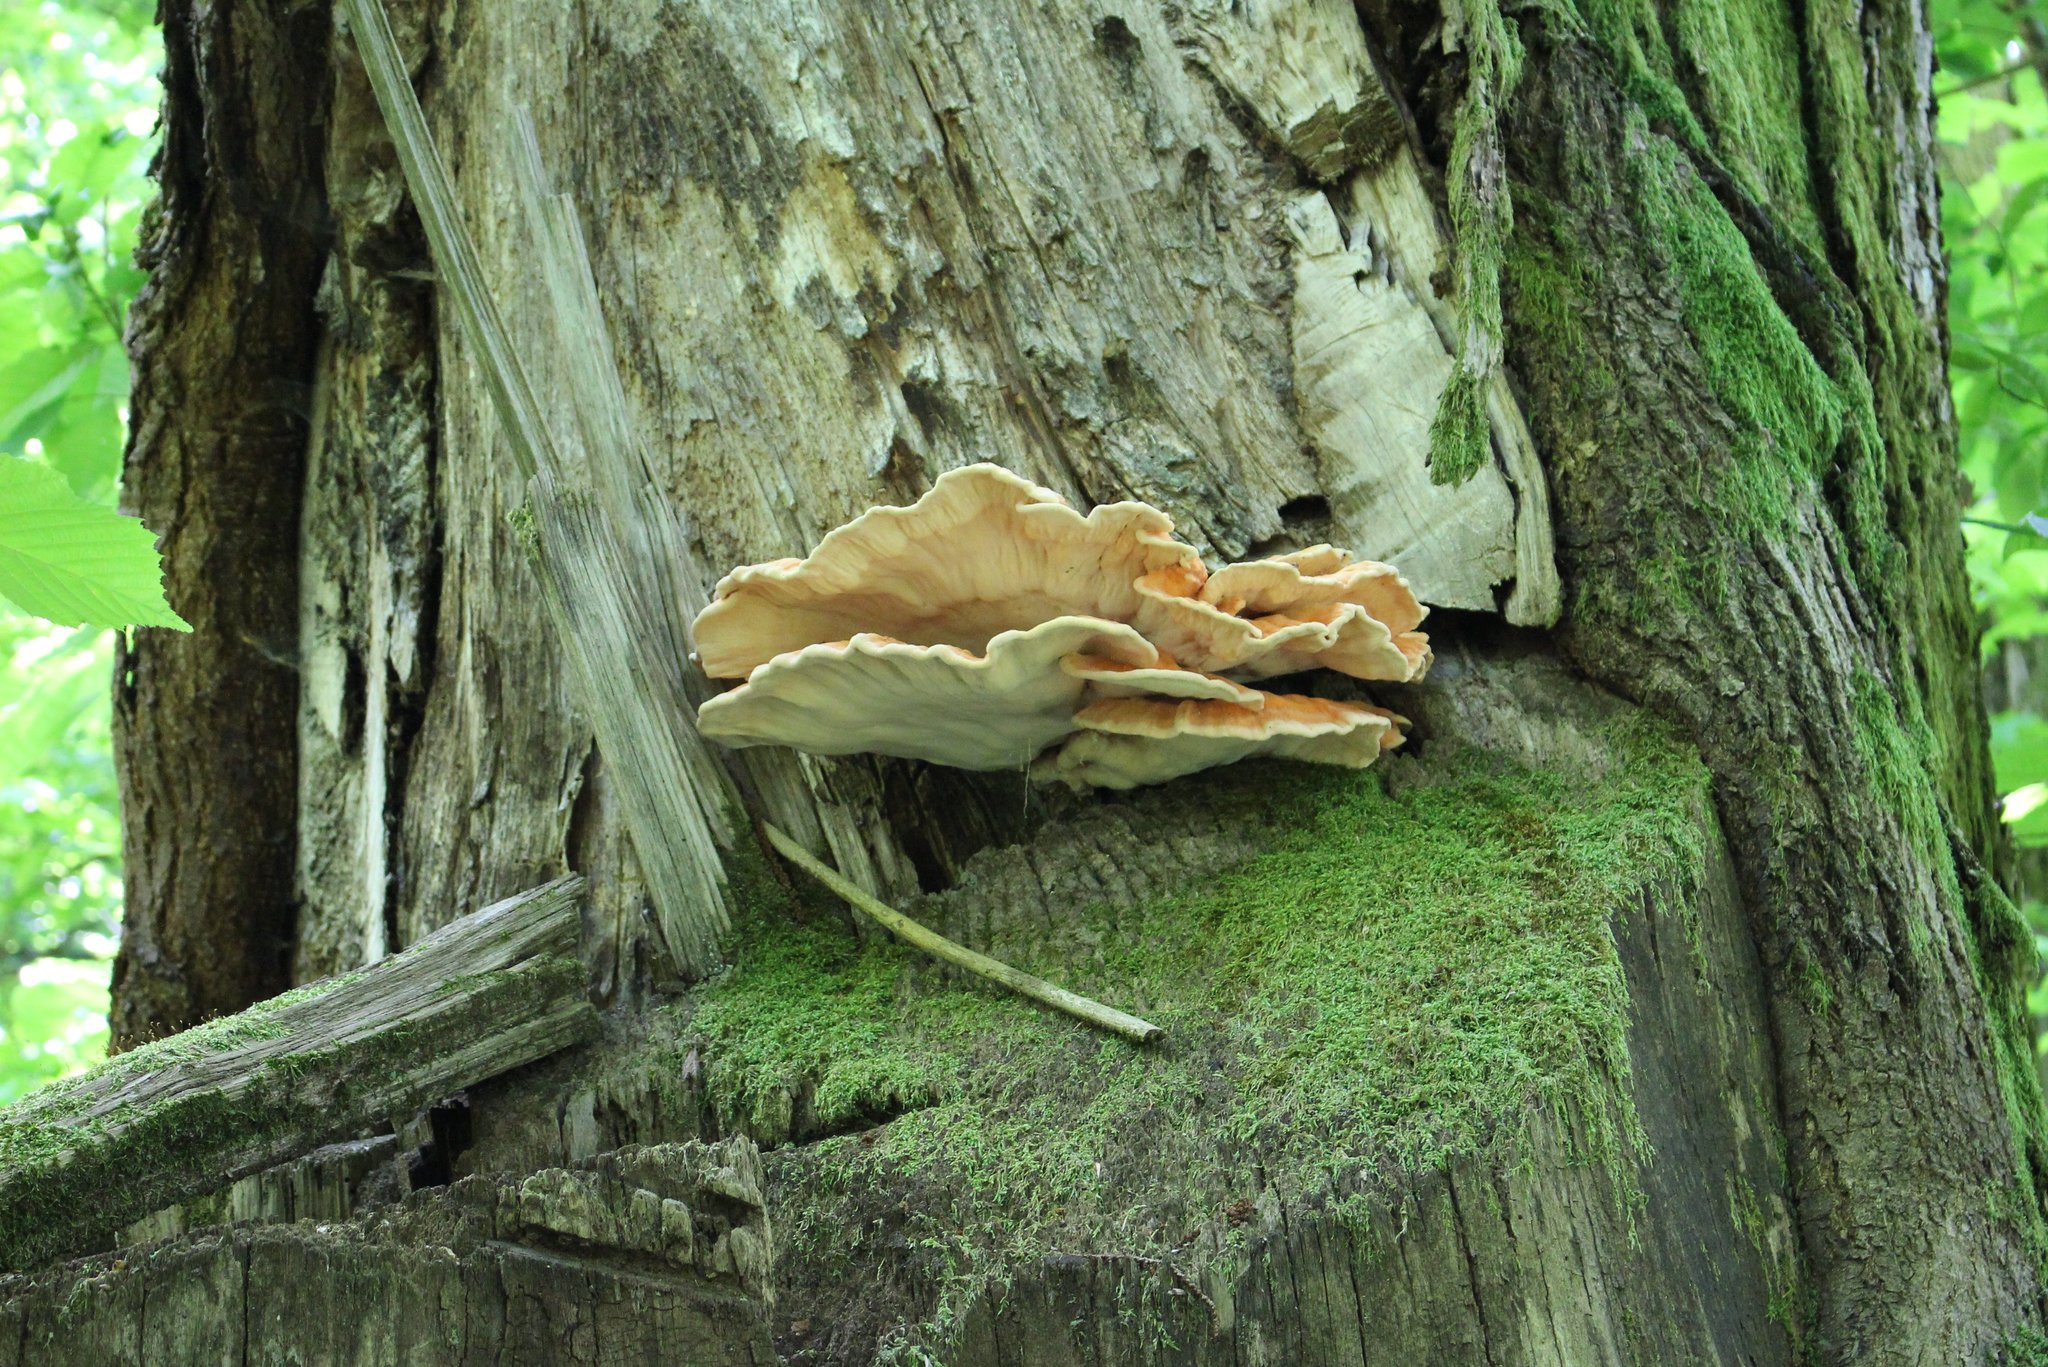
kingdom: Fungi
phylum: Basidiomycota
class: Agaricomycetes
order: Polyporales
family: Laetiporaceae
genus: Laetiporus
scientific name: Laetiporus sulphureus
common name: Chicken of the woods
